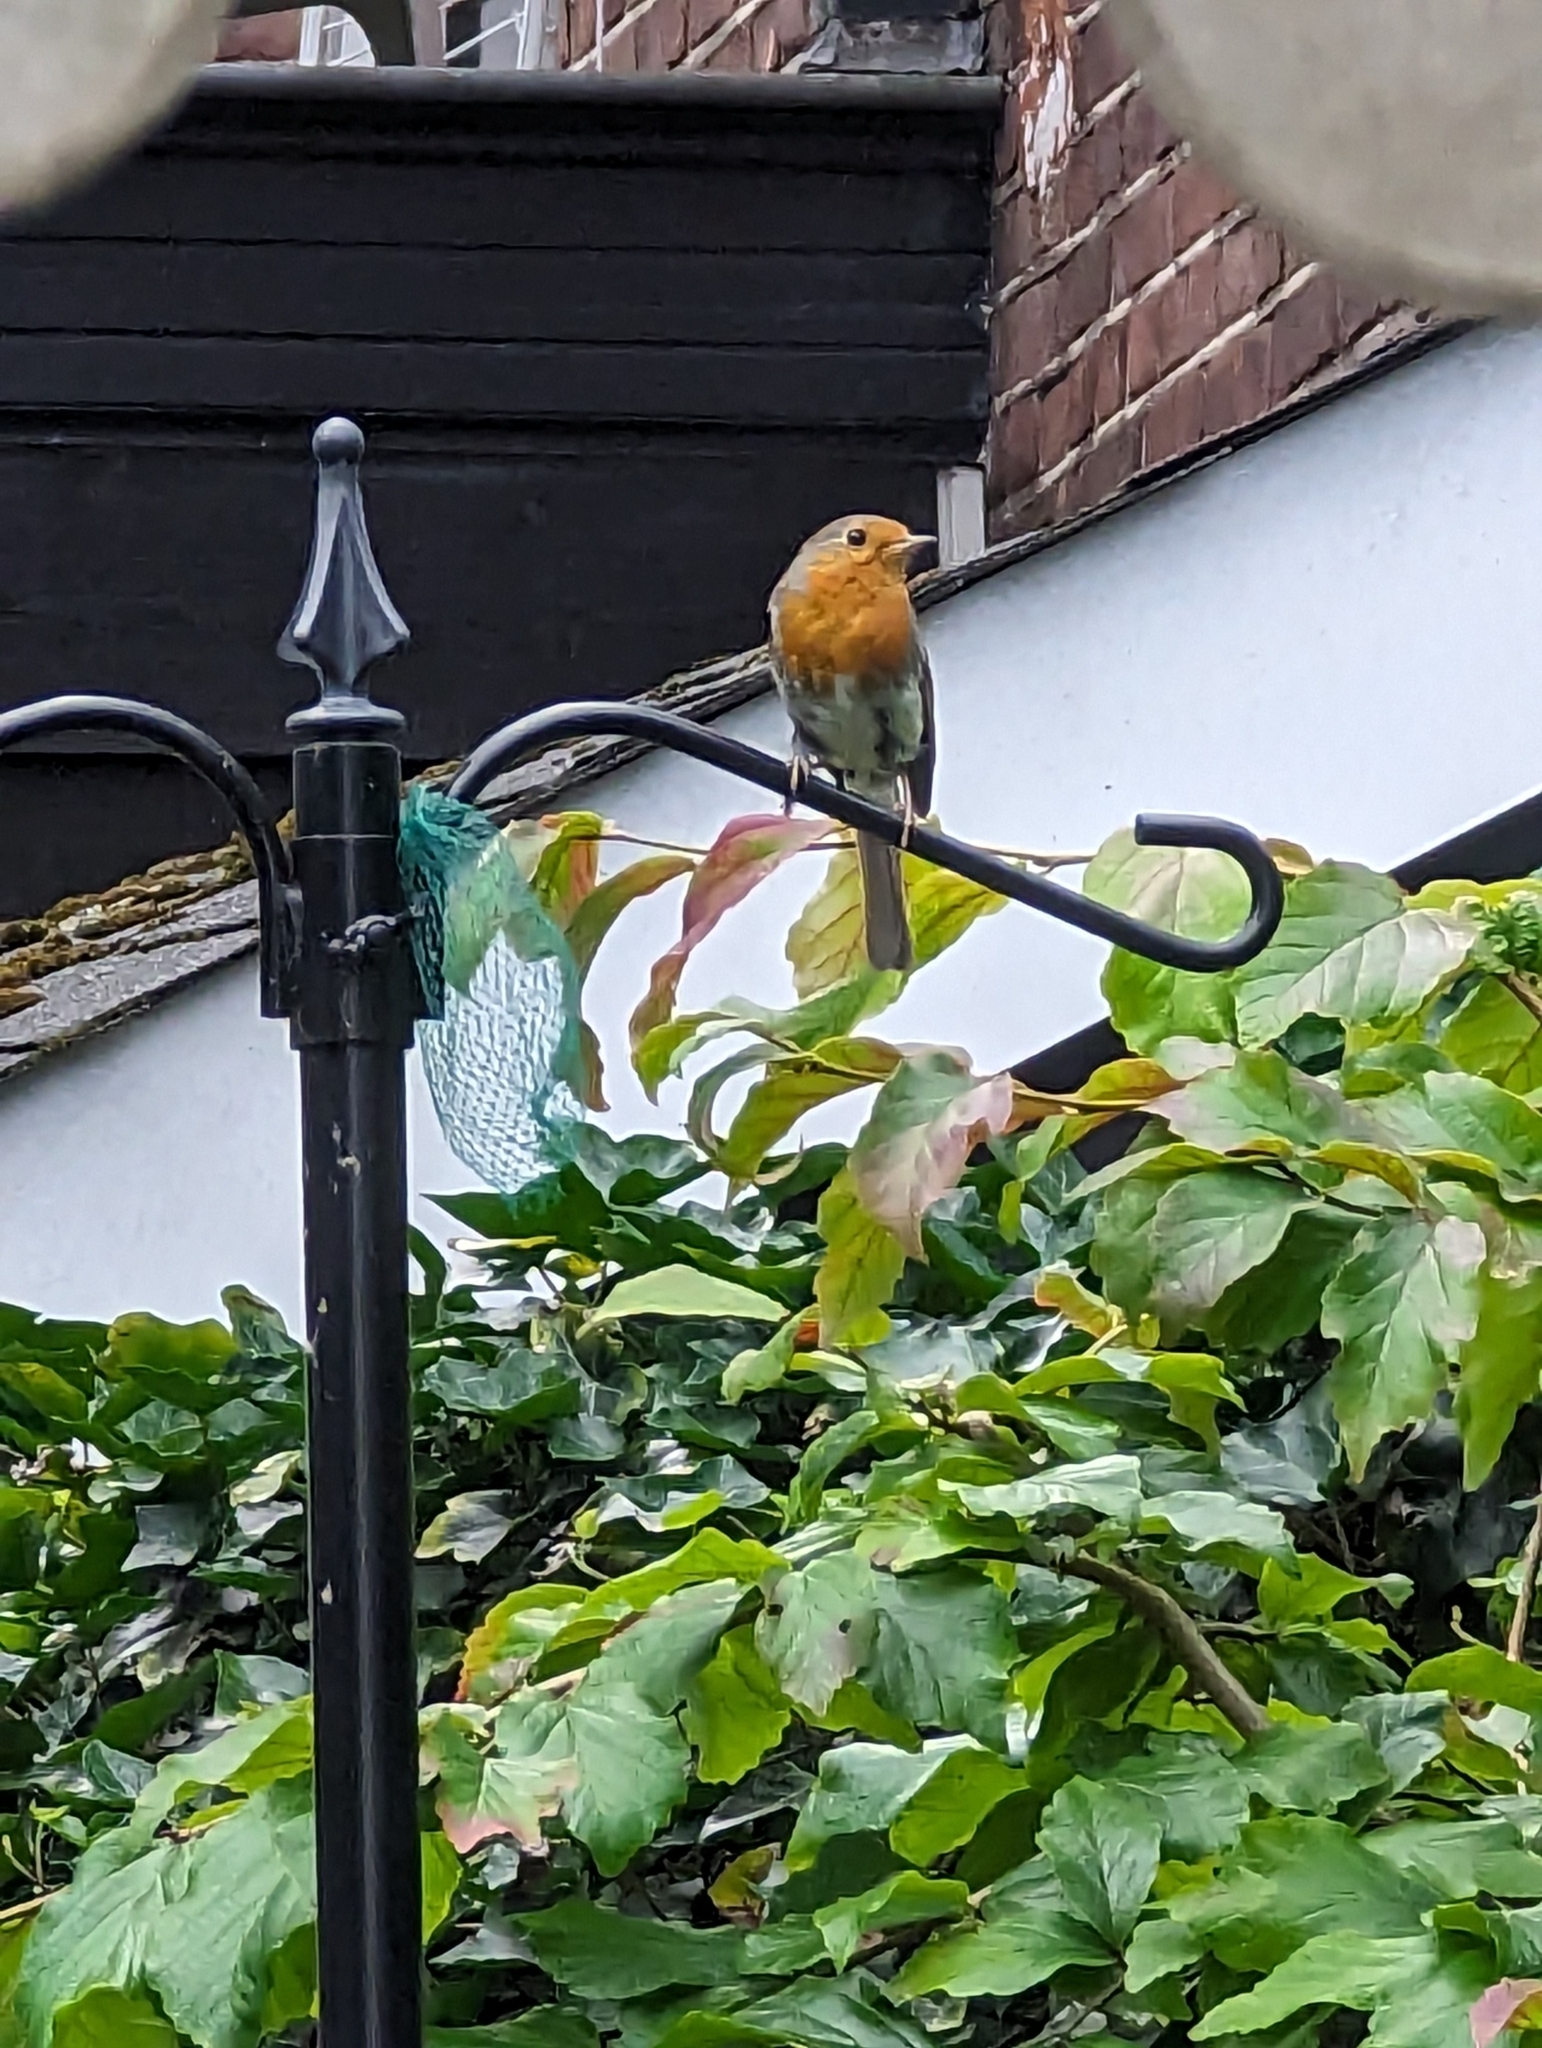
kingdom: Animalia
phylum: Chordata
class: Aves
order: Passeriformes
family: Muscicapidae
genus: Erithacus
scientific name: Erithacus rubecula
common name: European robin
